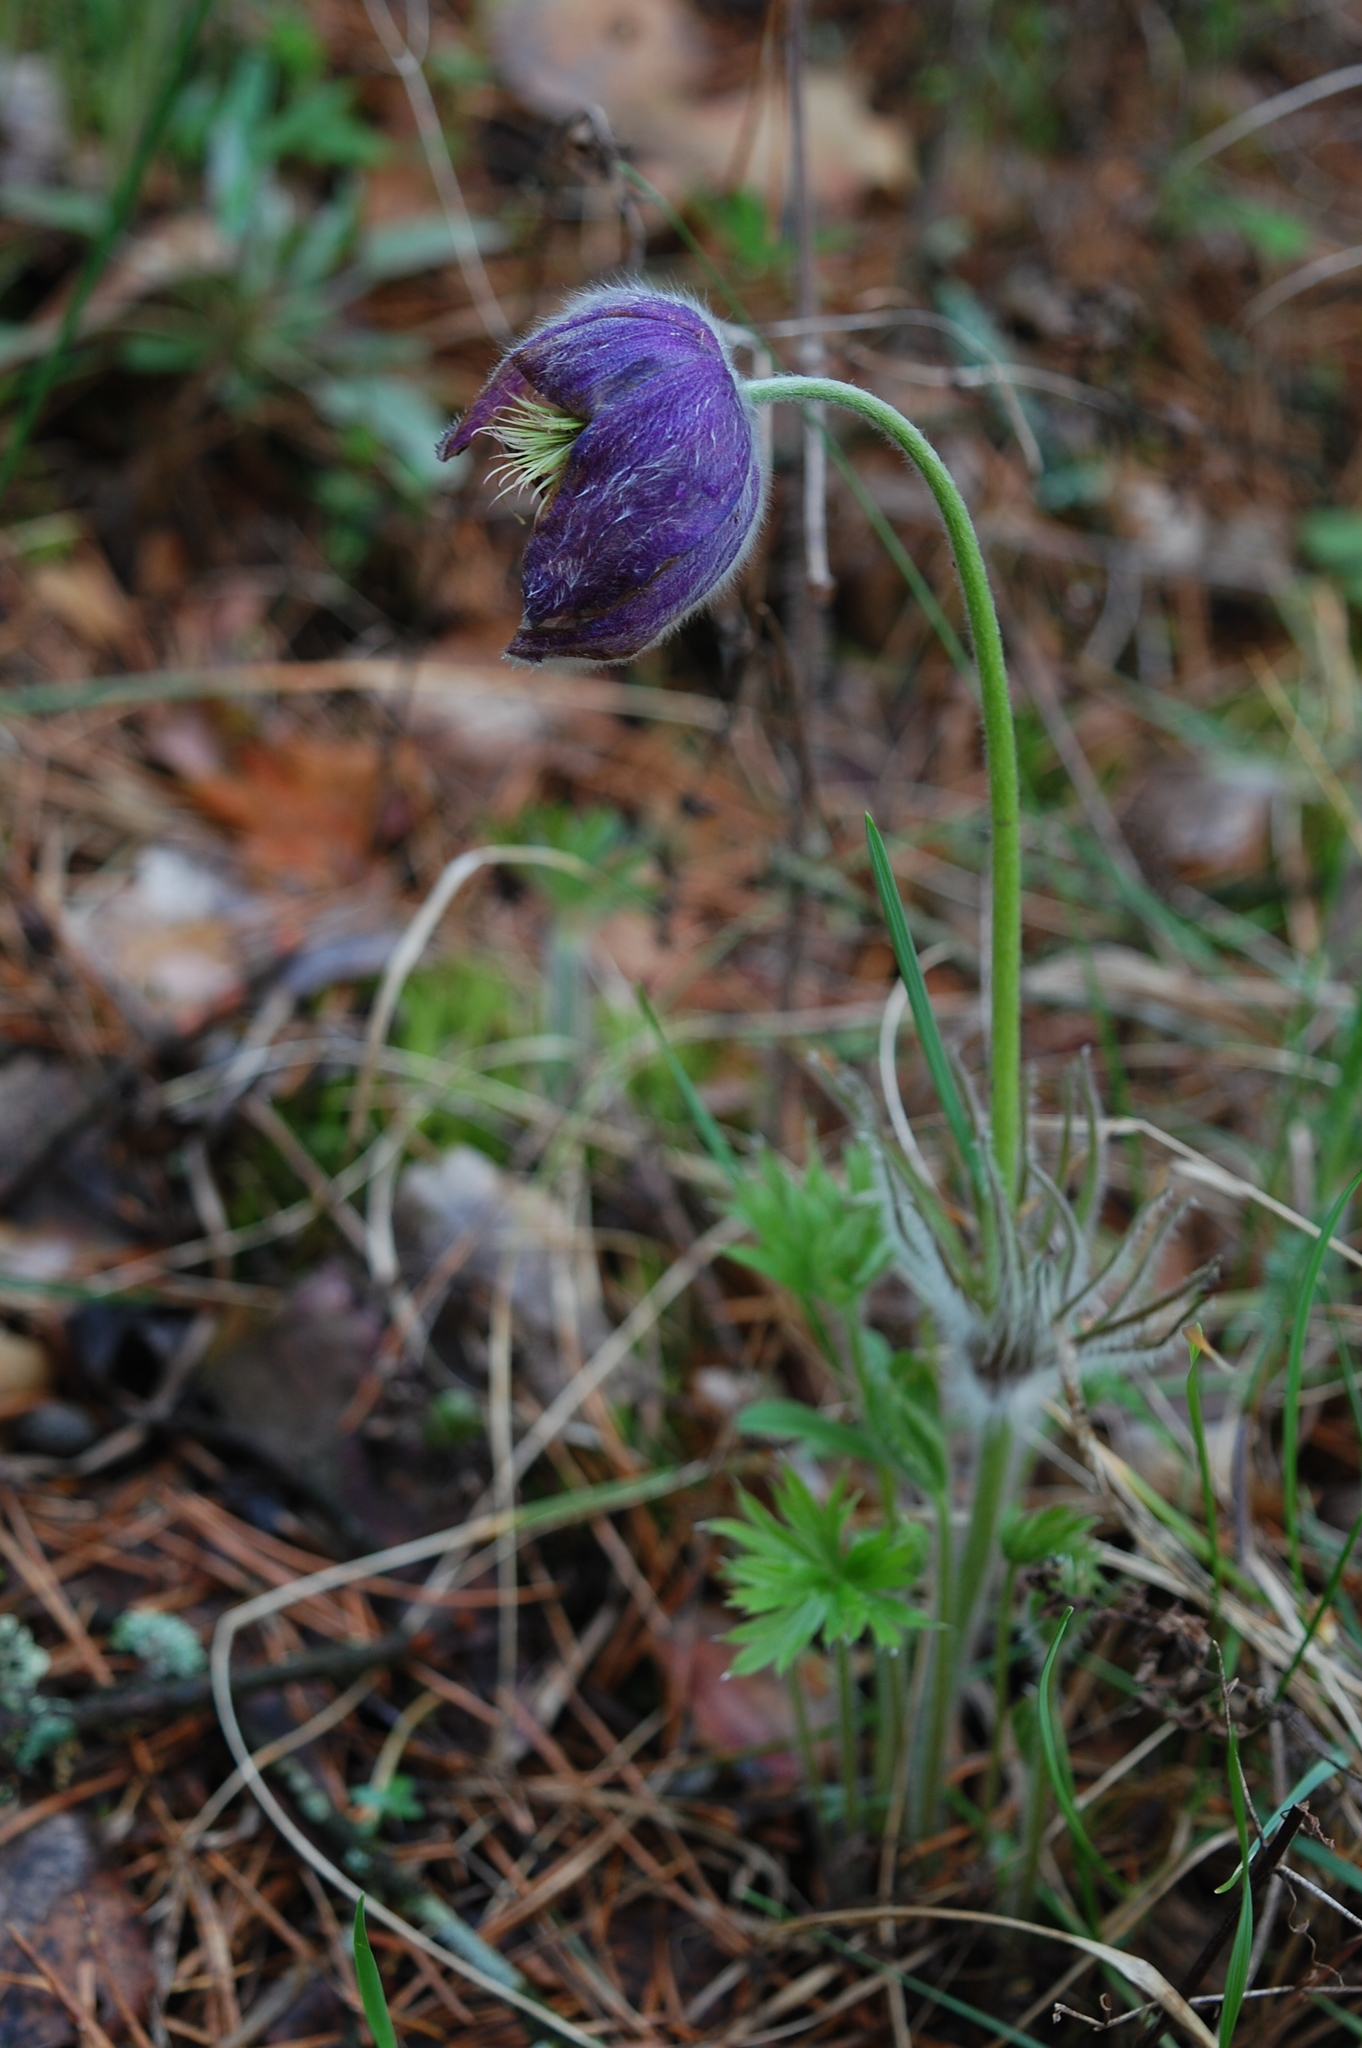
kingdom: Plantae
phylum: Tracheophyta
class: Magnoliopsida
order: Ranunculales
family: Ranunculaceae
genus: Pulsatilla
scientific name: Pulsatilla patens
